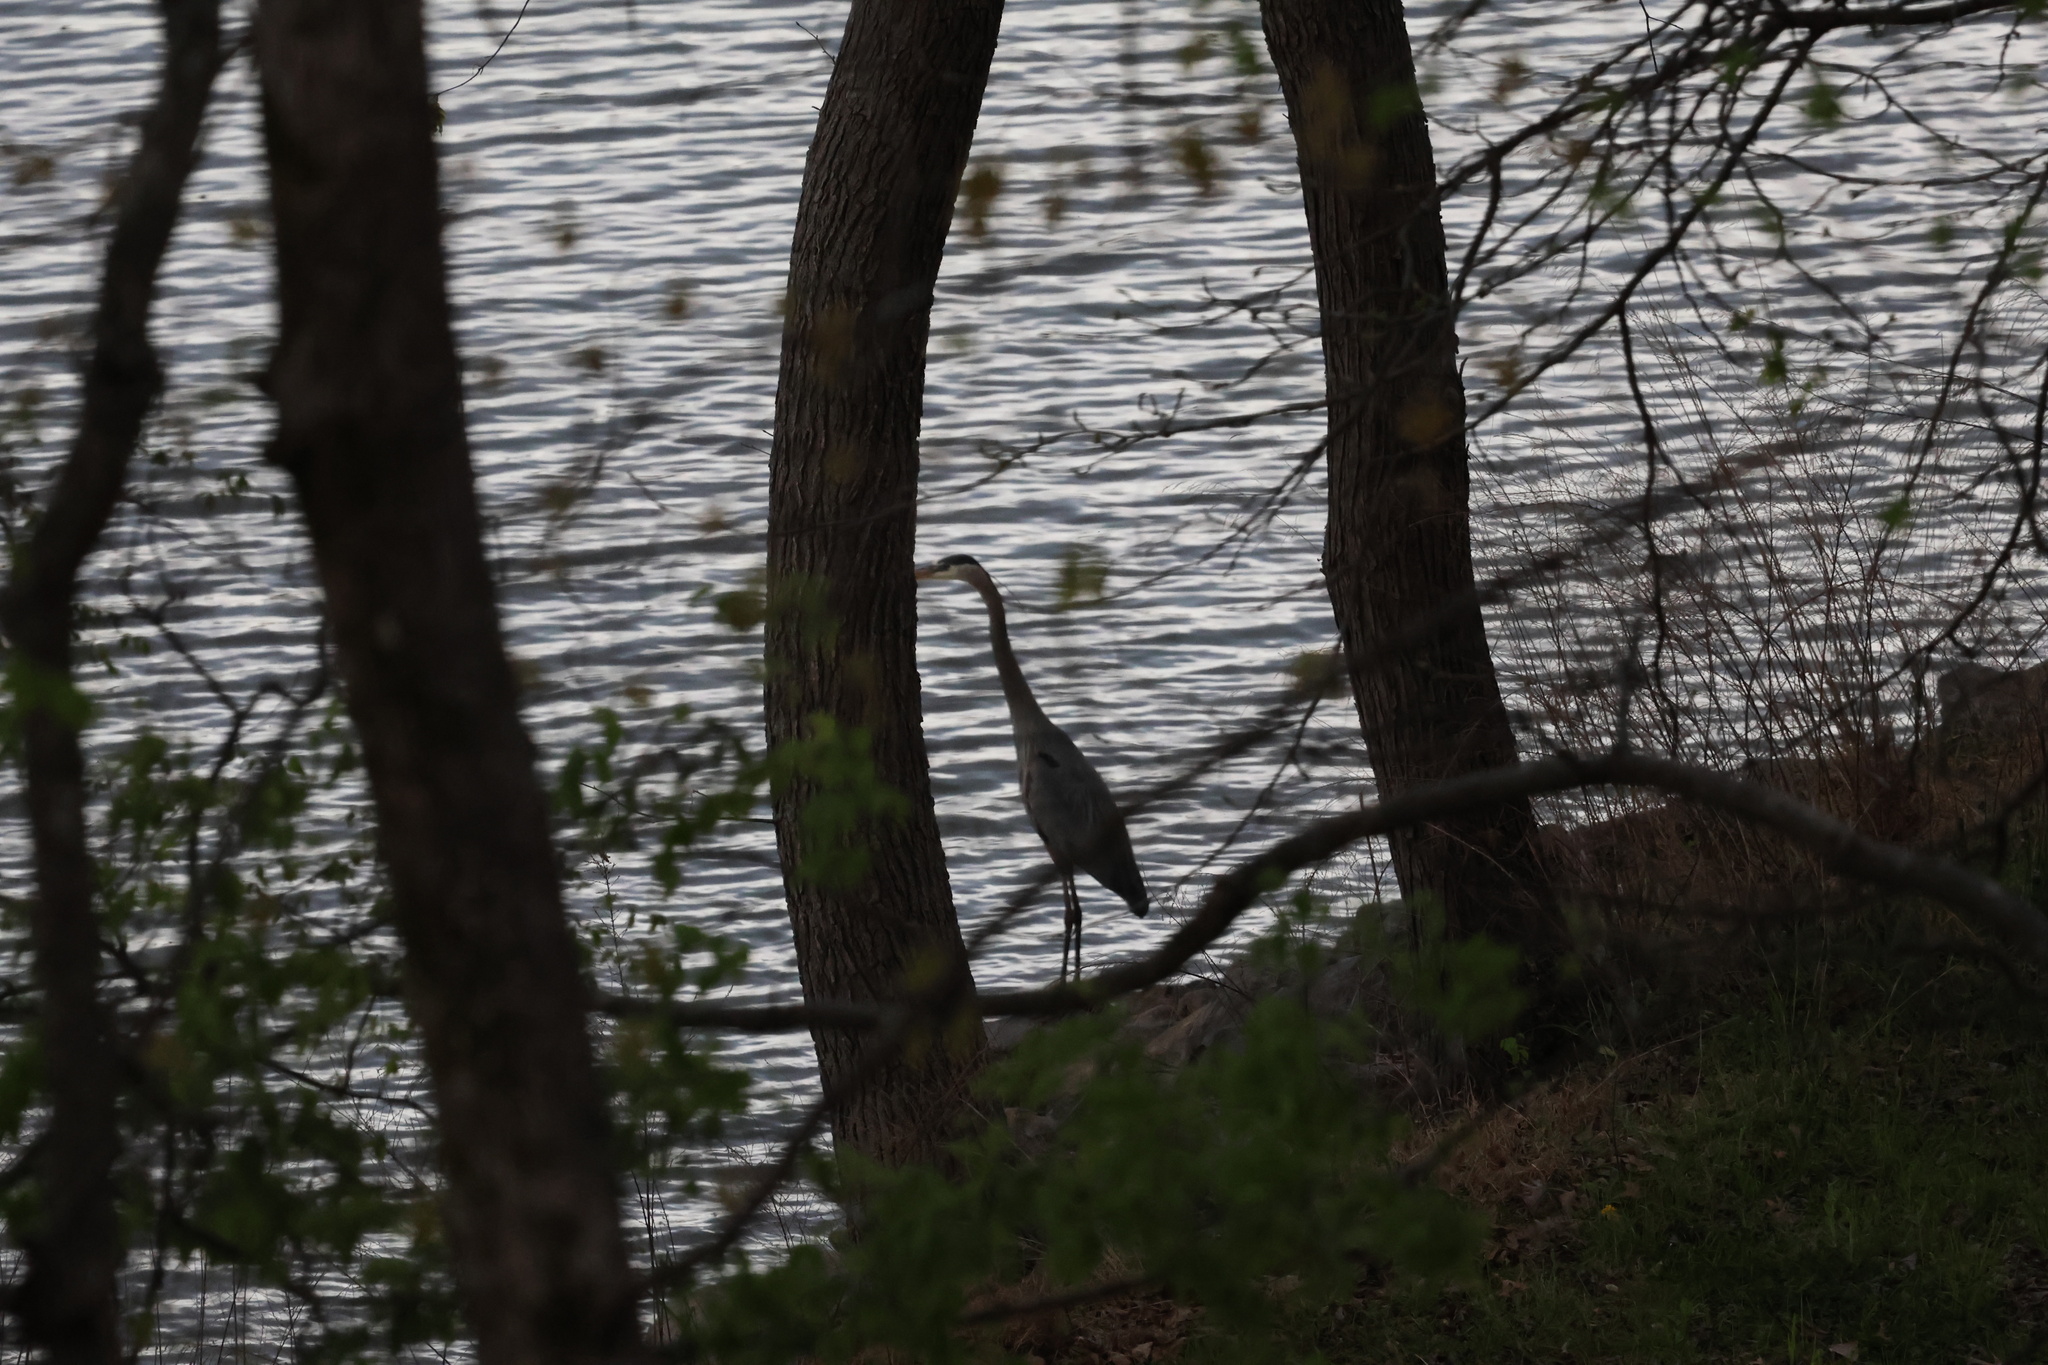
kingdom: Animalia
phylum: Chordata
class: Aves
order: Pelecaniformes
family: Ardeidae
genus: Ardea
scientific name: Ardea herodias
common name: Great blue heron
